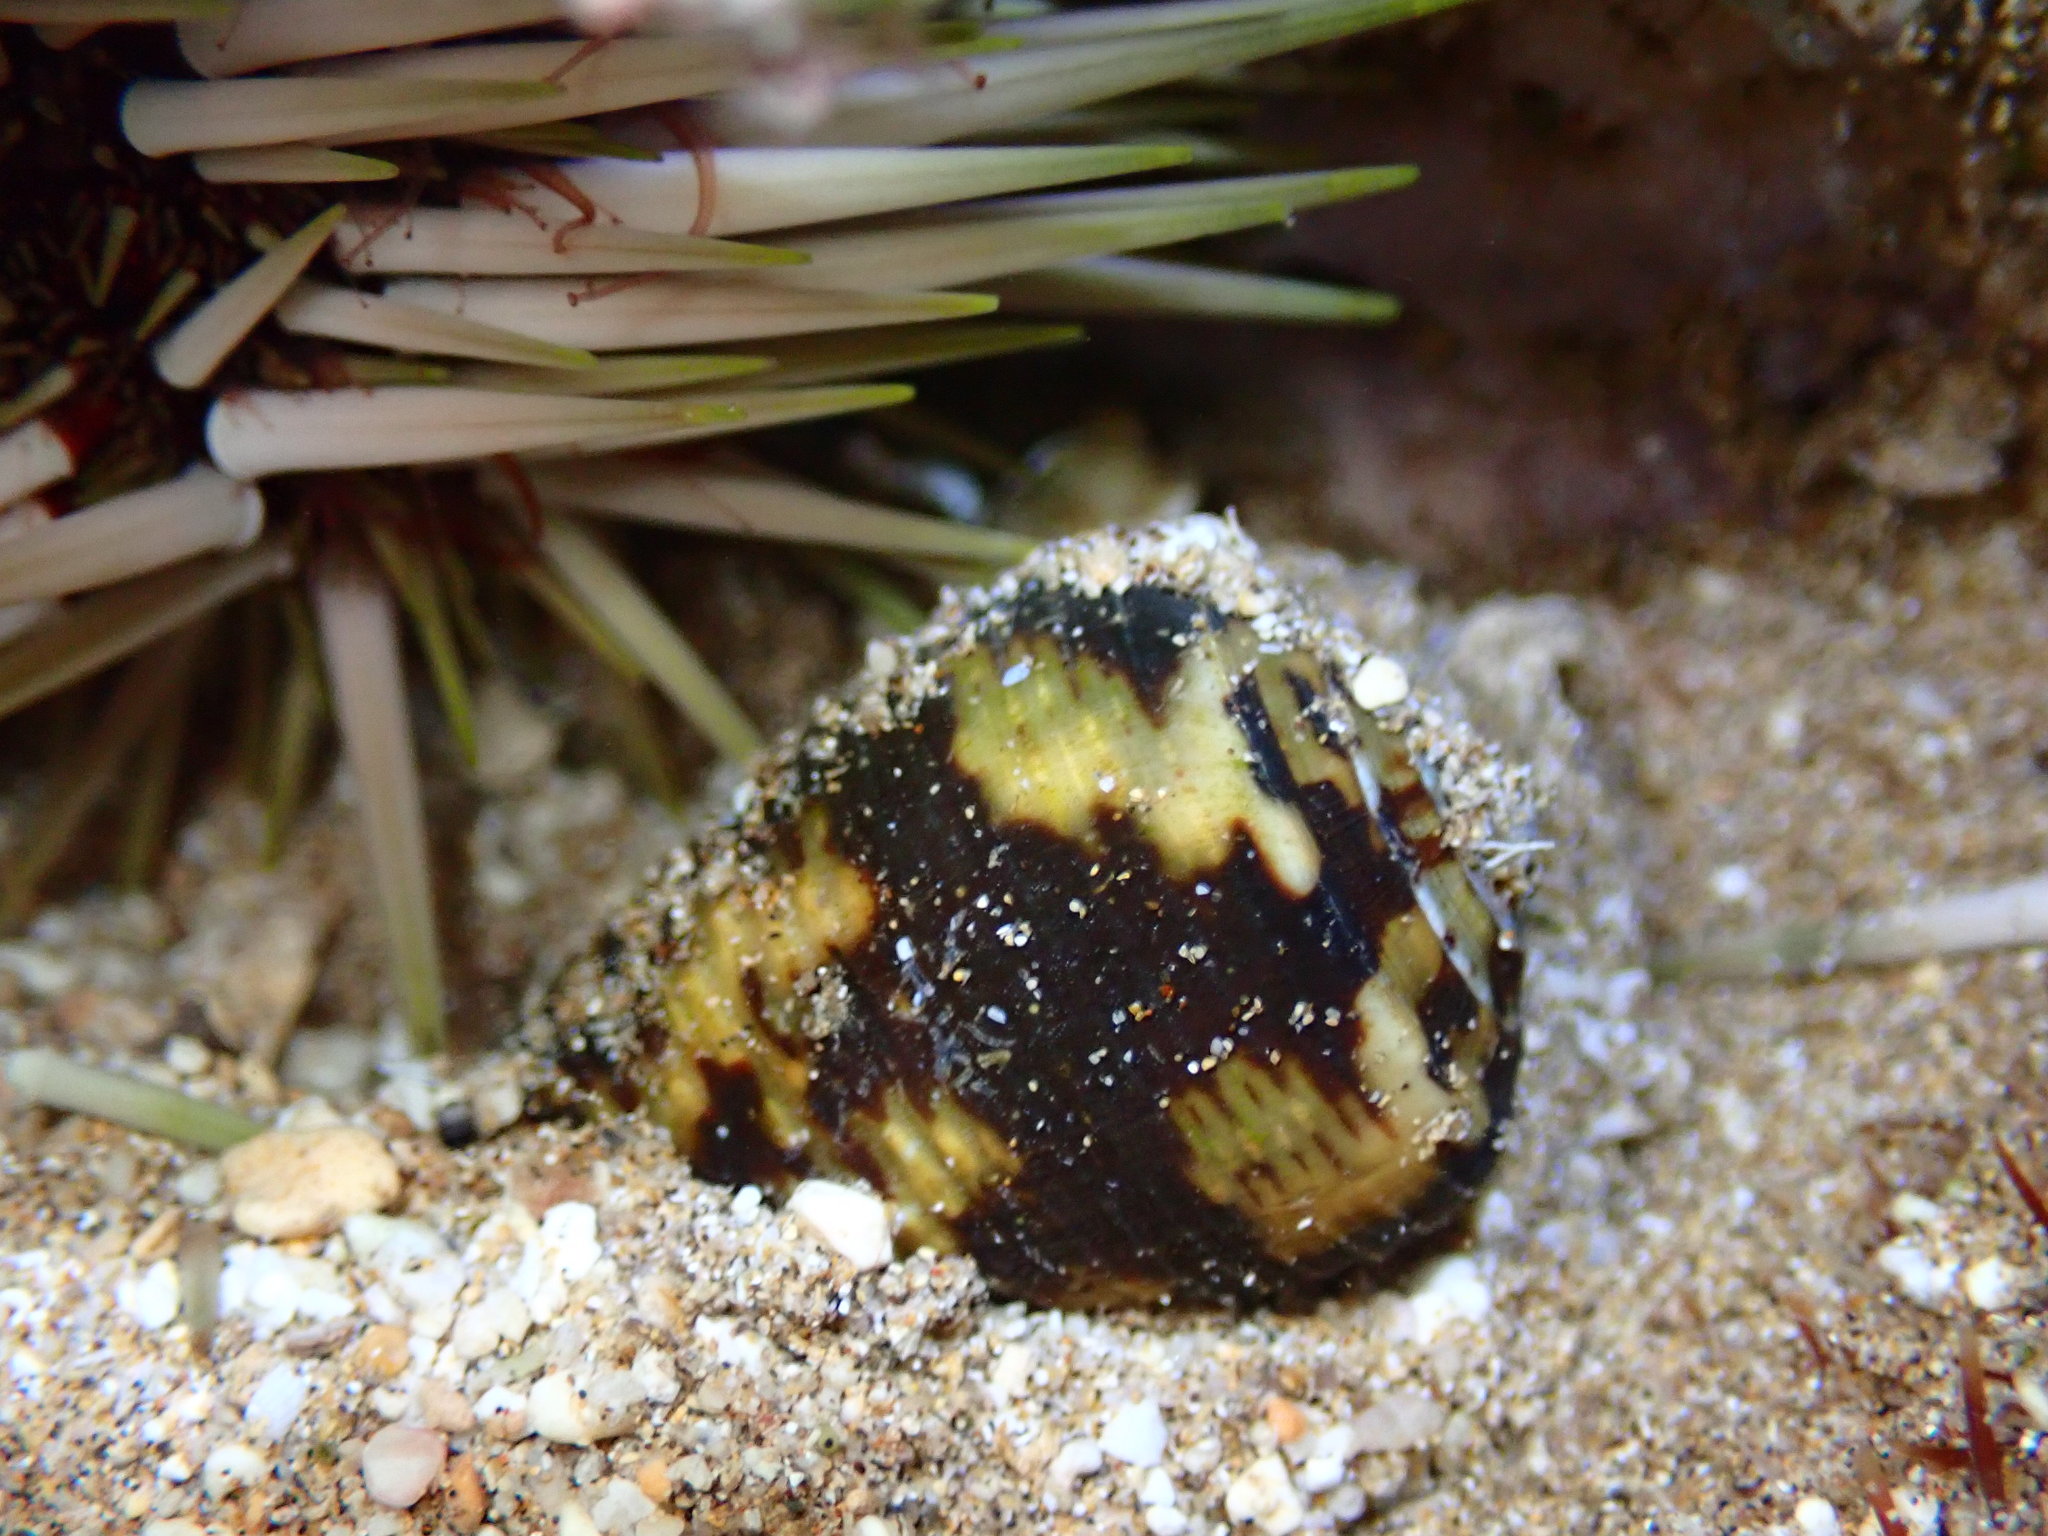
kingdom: Animalia
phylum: Mollusca
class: Gastropoda
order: Neogastropoda
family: Conidae
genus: Conus
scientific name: Conus catus
